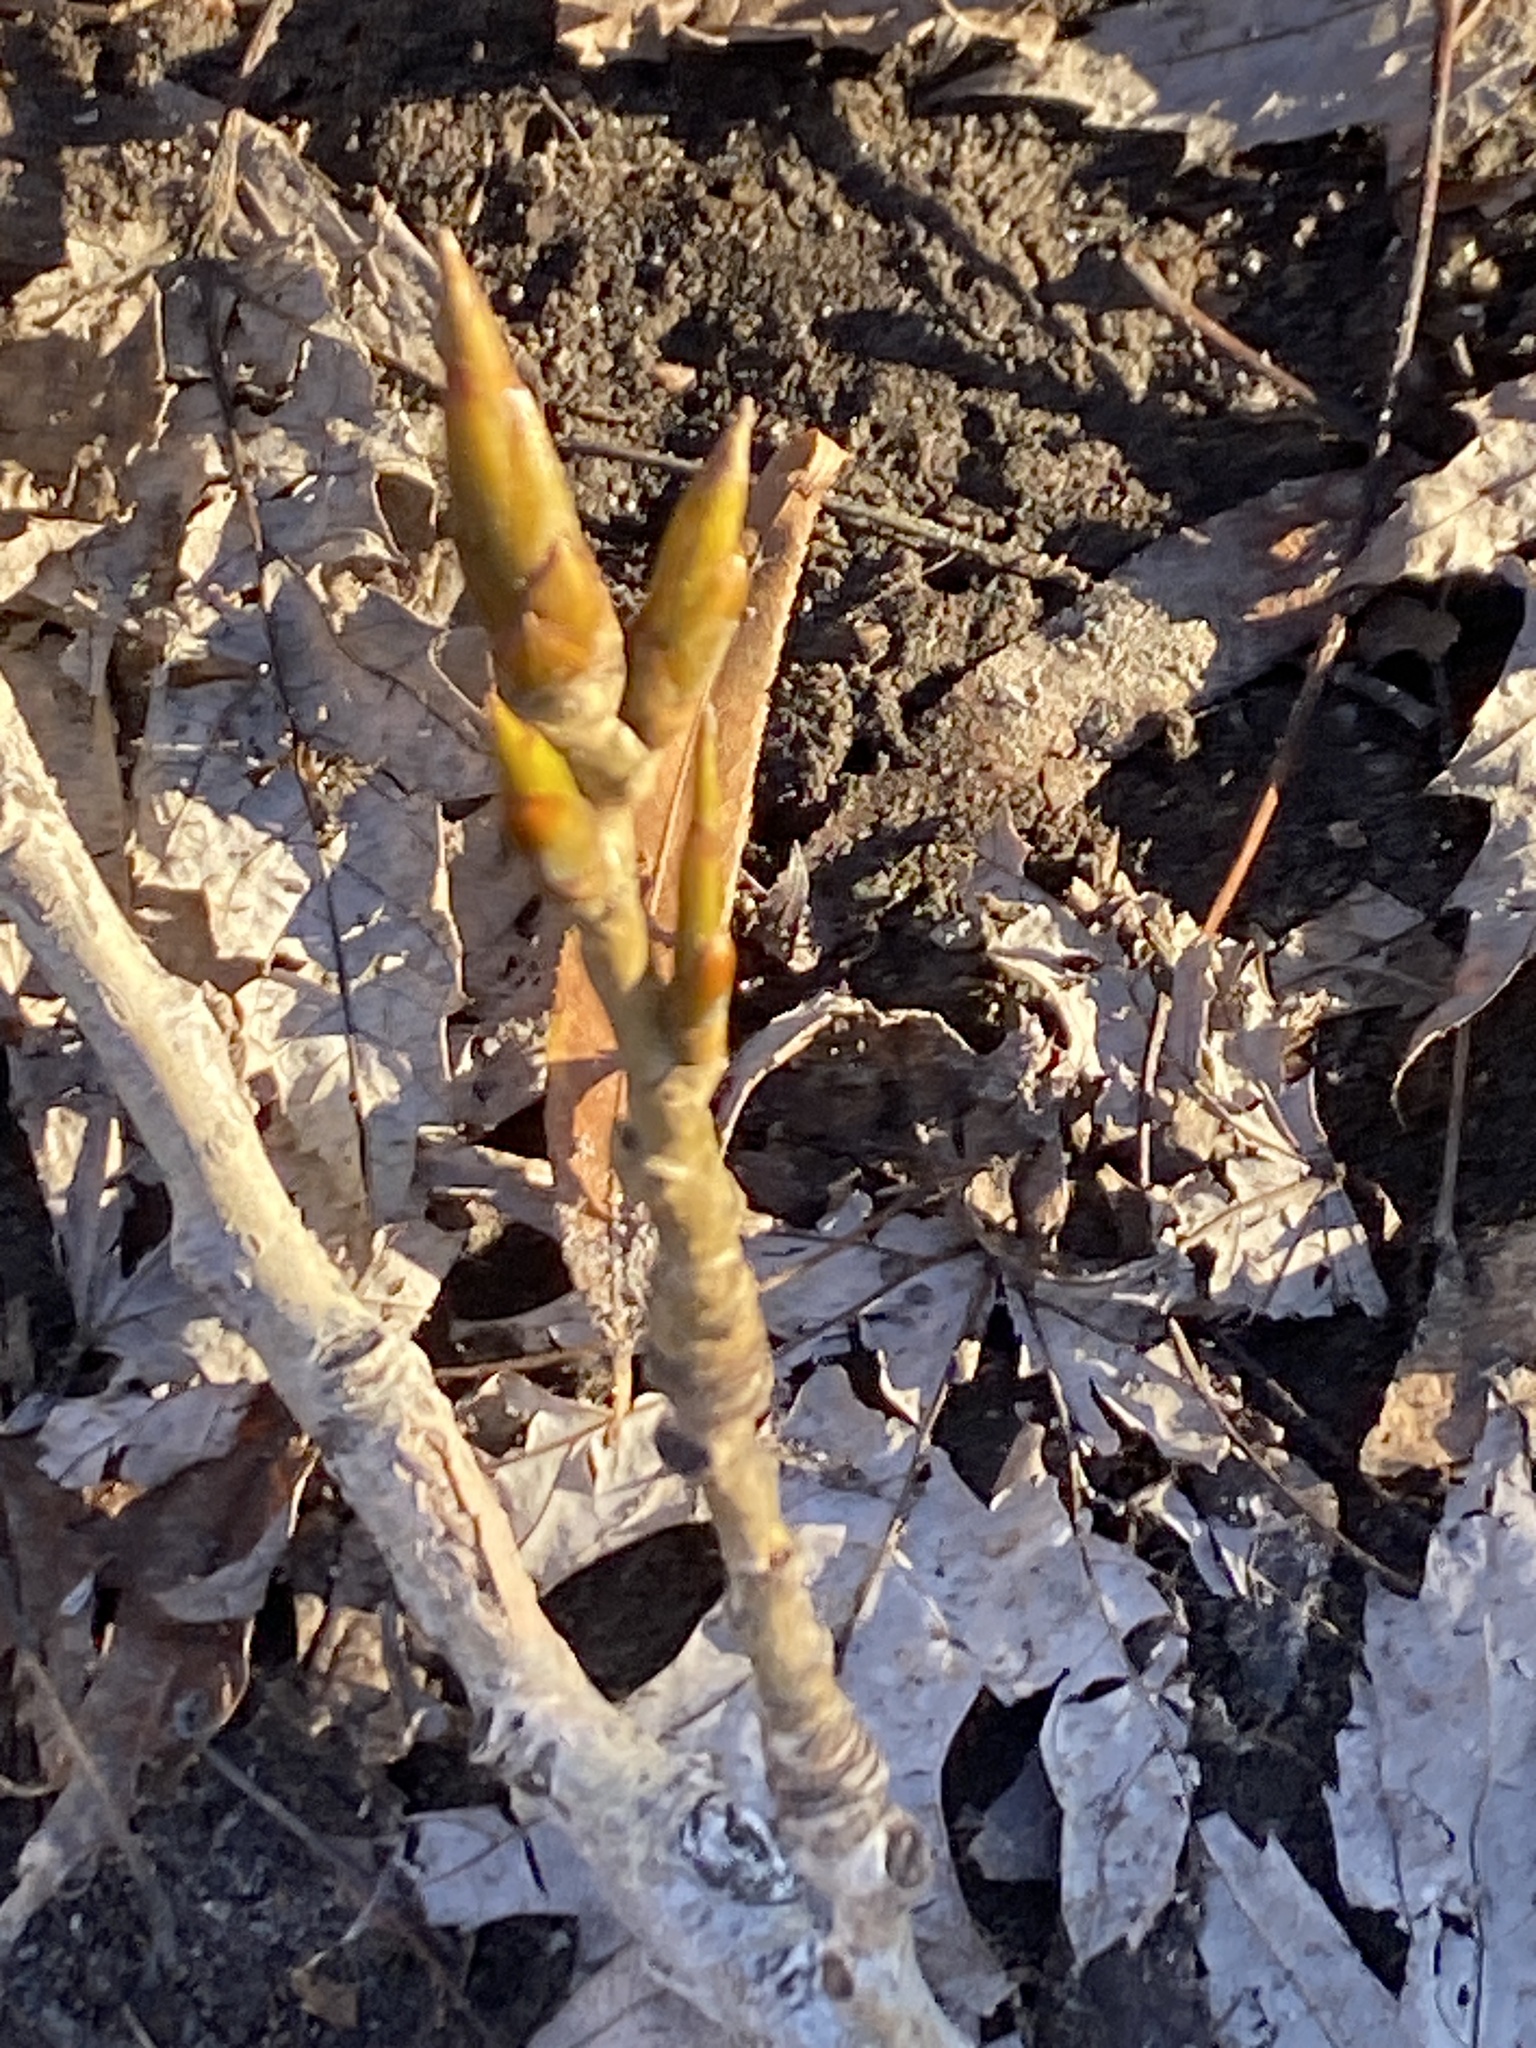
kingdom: Plantae
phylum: Tracheophyta
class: Magnoliopsida
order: Malpighiales
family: Salicaceae
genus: Populus
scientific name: Populus deltoides
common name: Eastern cottonwood
